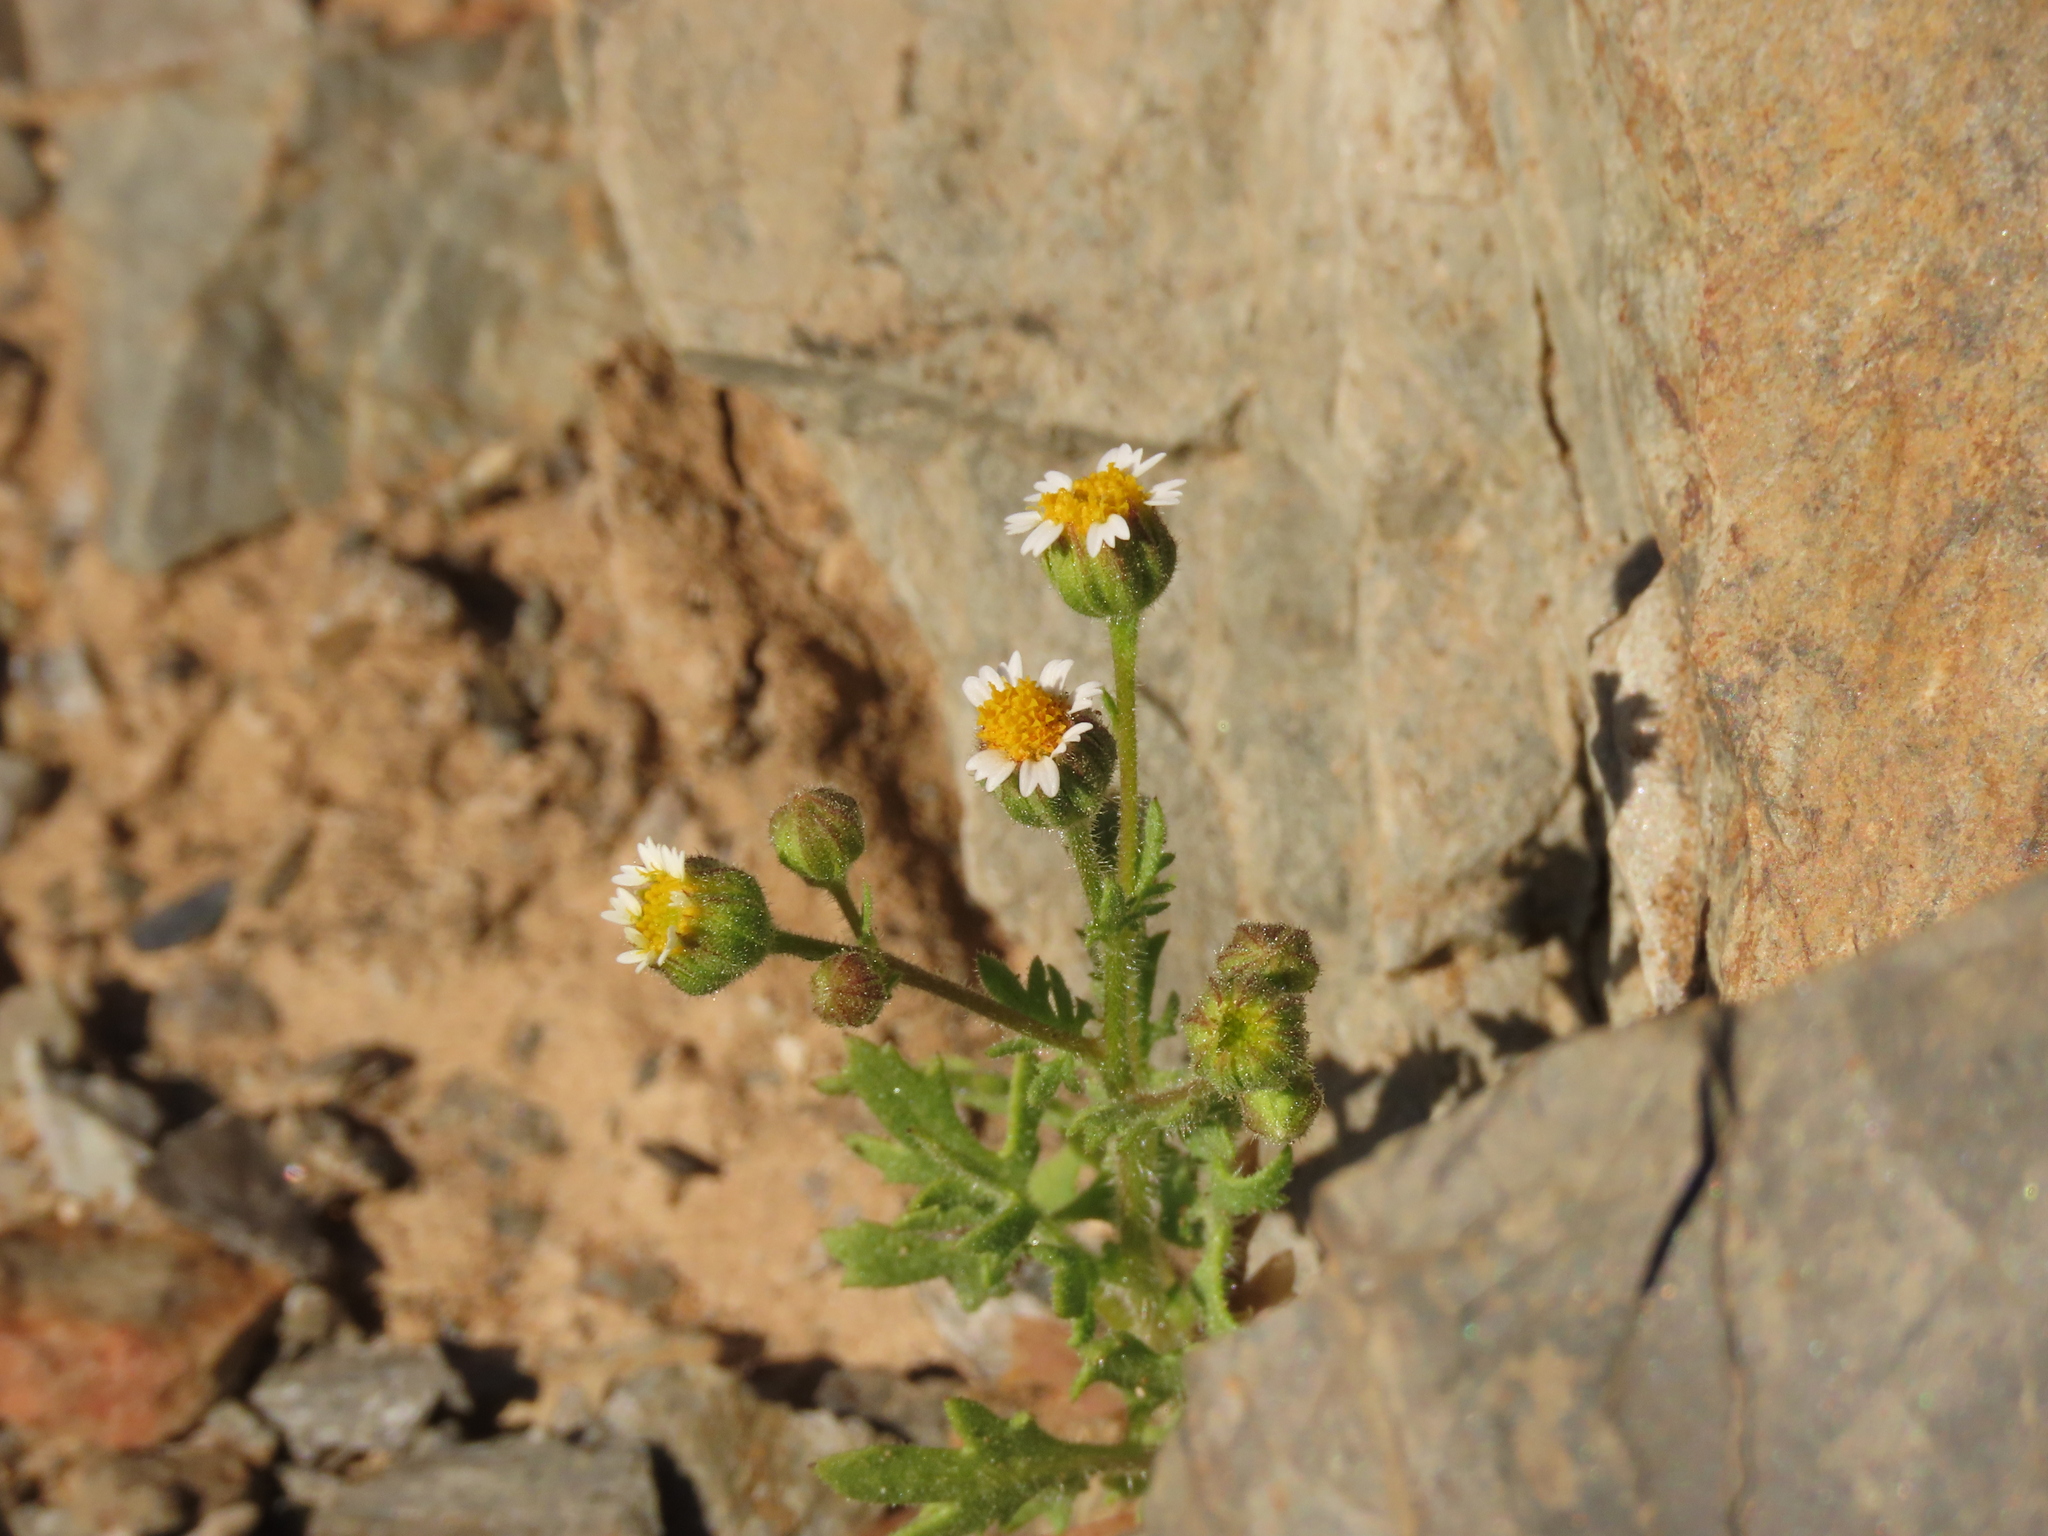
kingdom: Plantae
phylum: Tracheophyta
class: Magnoliopsida
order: Asterales
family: Asteraceae
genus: Laphamia
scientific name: Laphamia emoryi
